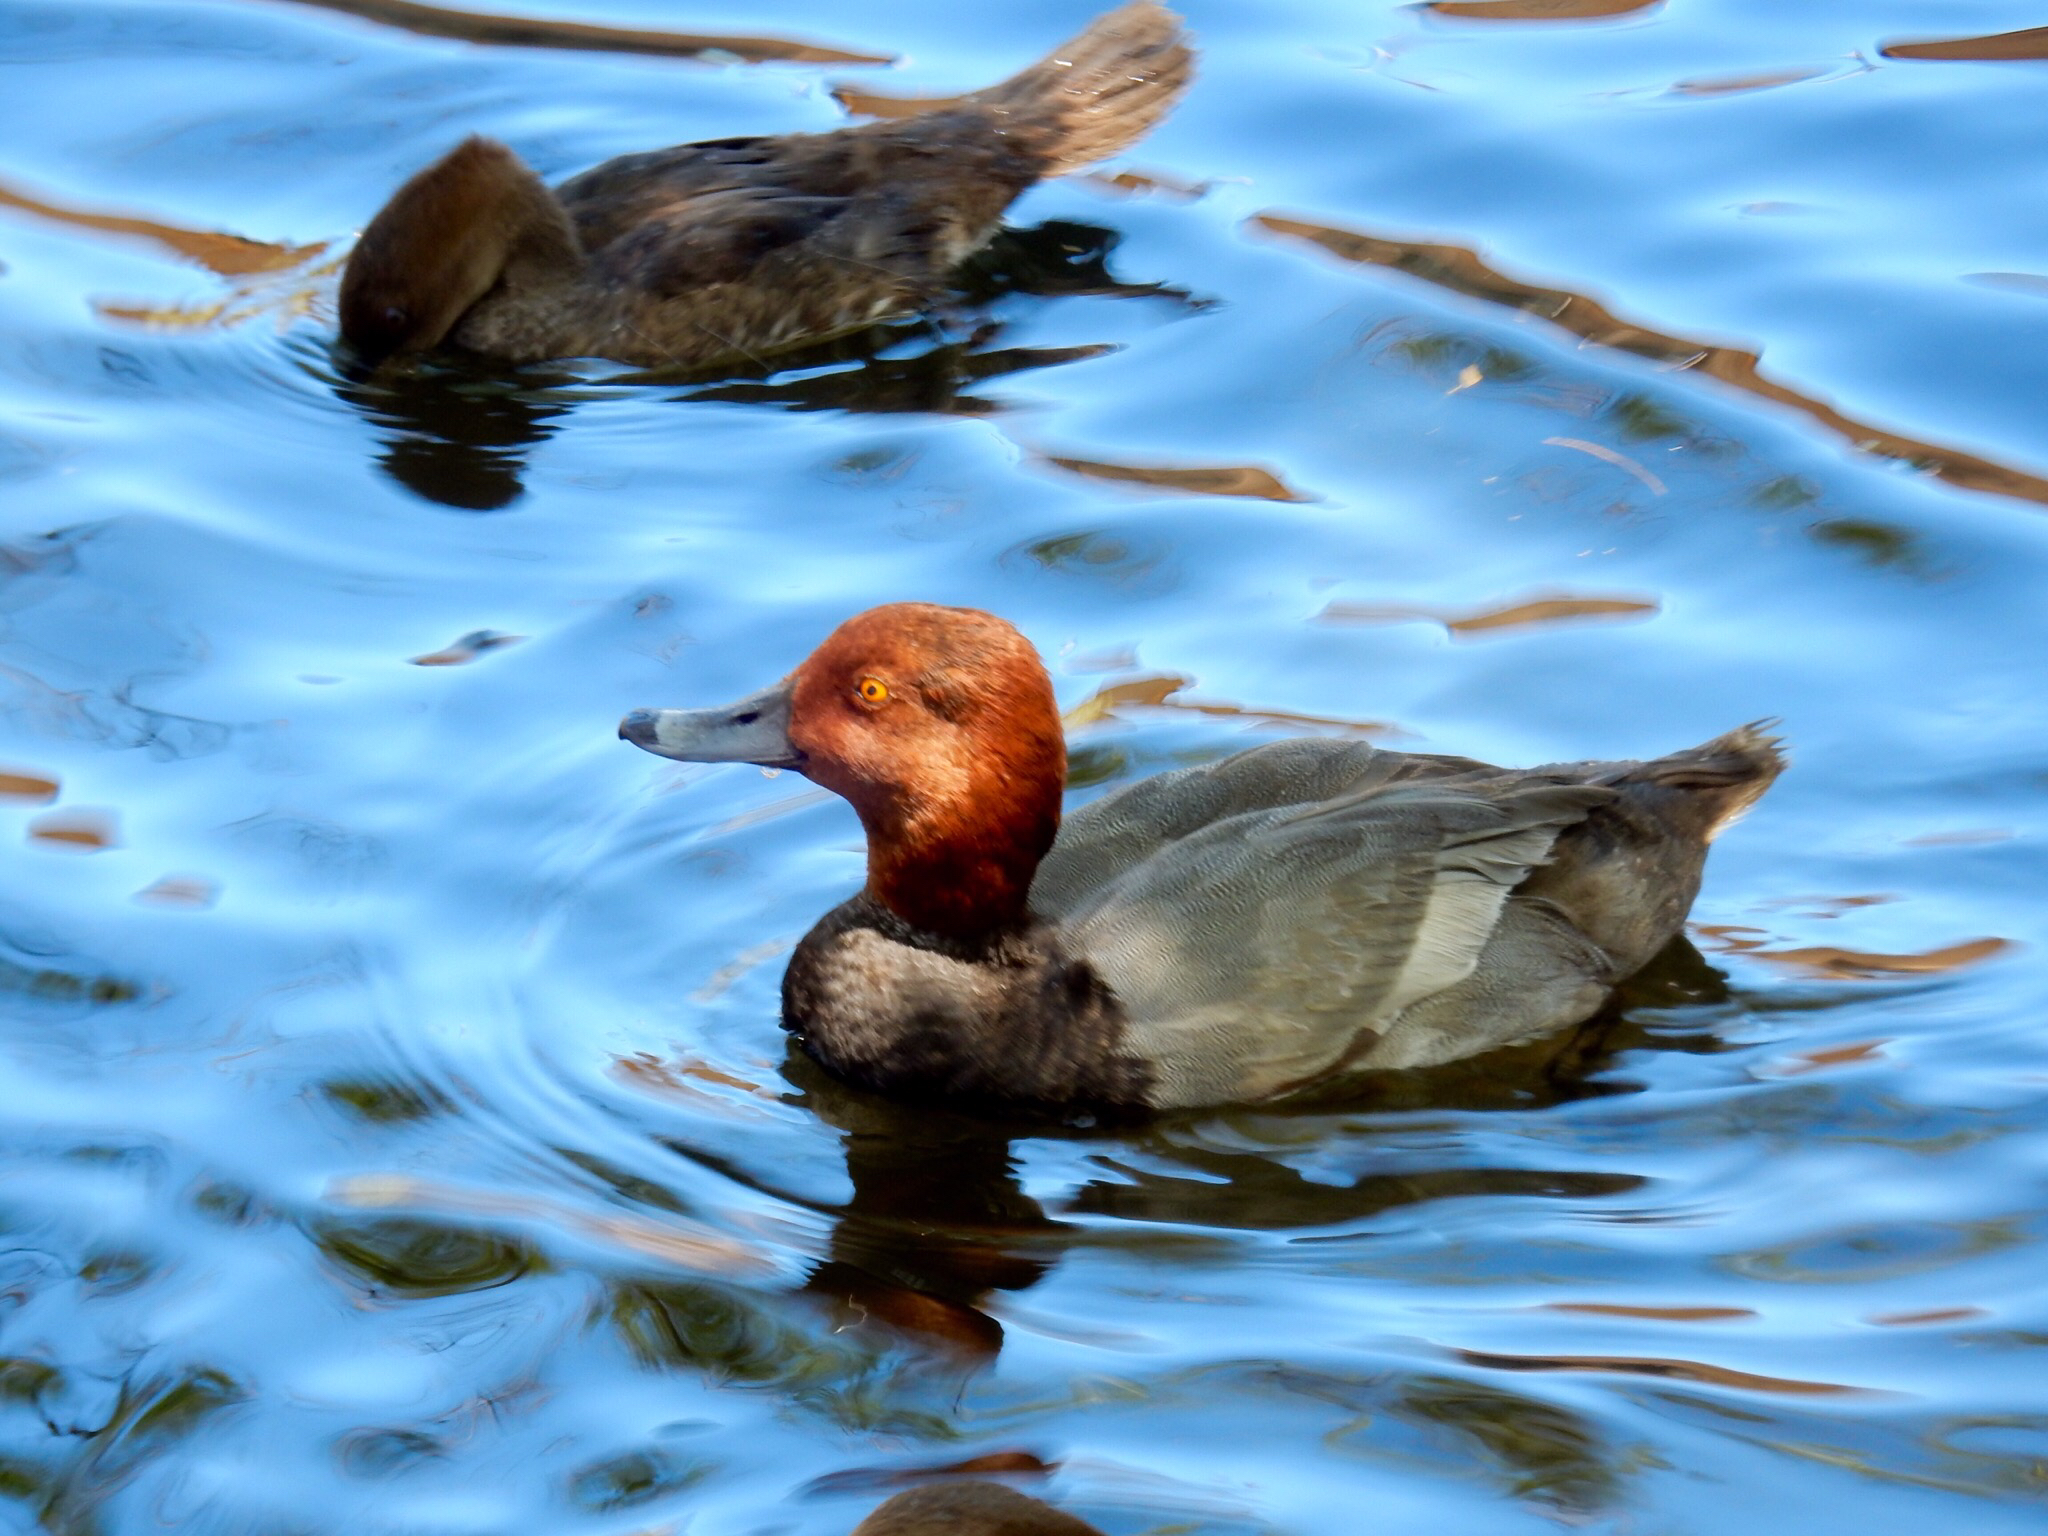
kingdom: Animalia
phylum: Chordata
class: Aves
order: Anseriformes
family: Anatidae
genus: Aythya
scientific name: Aythya americana
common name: Redhead
